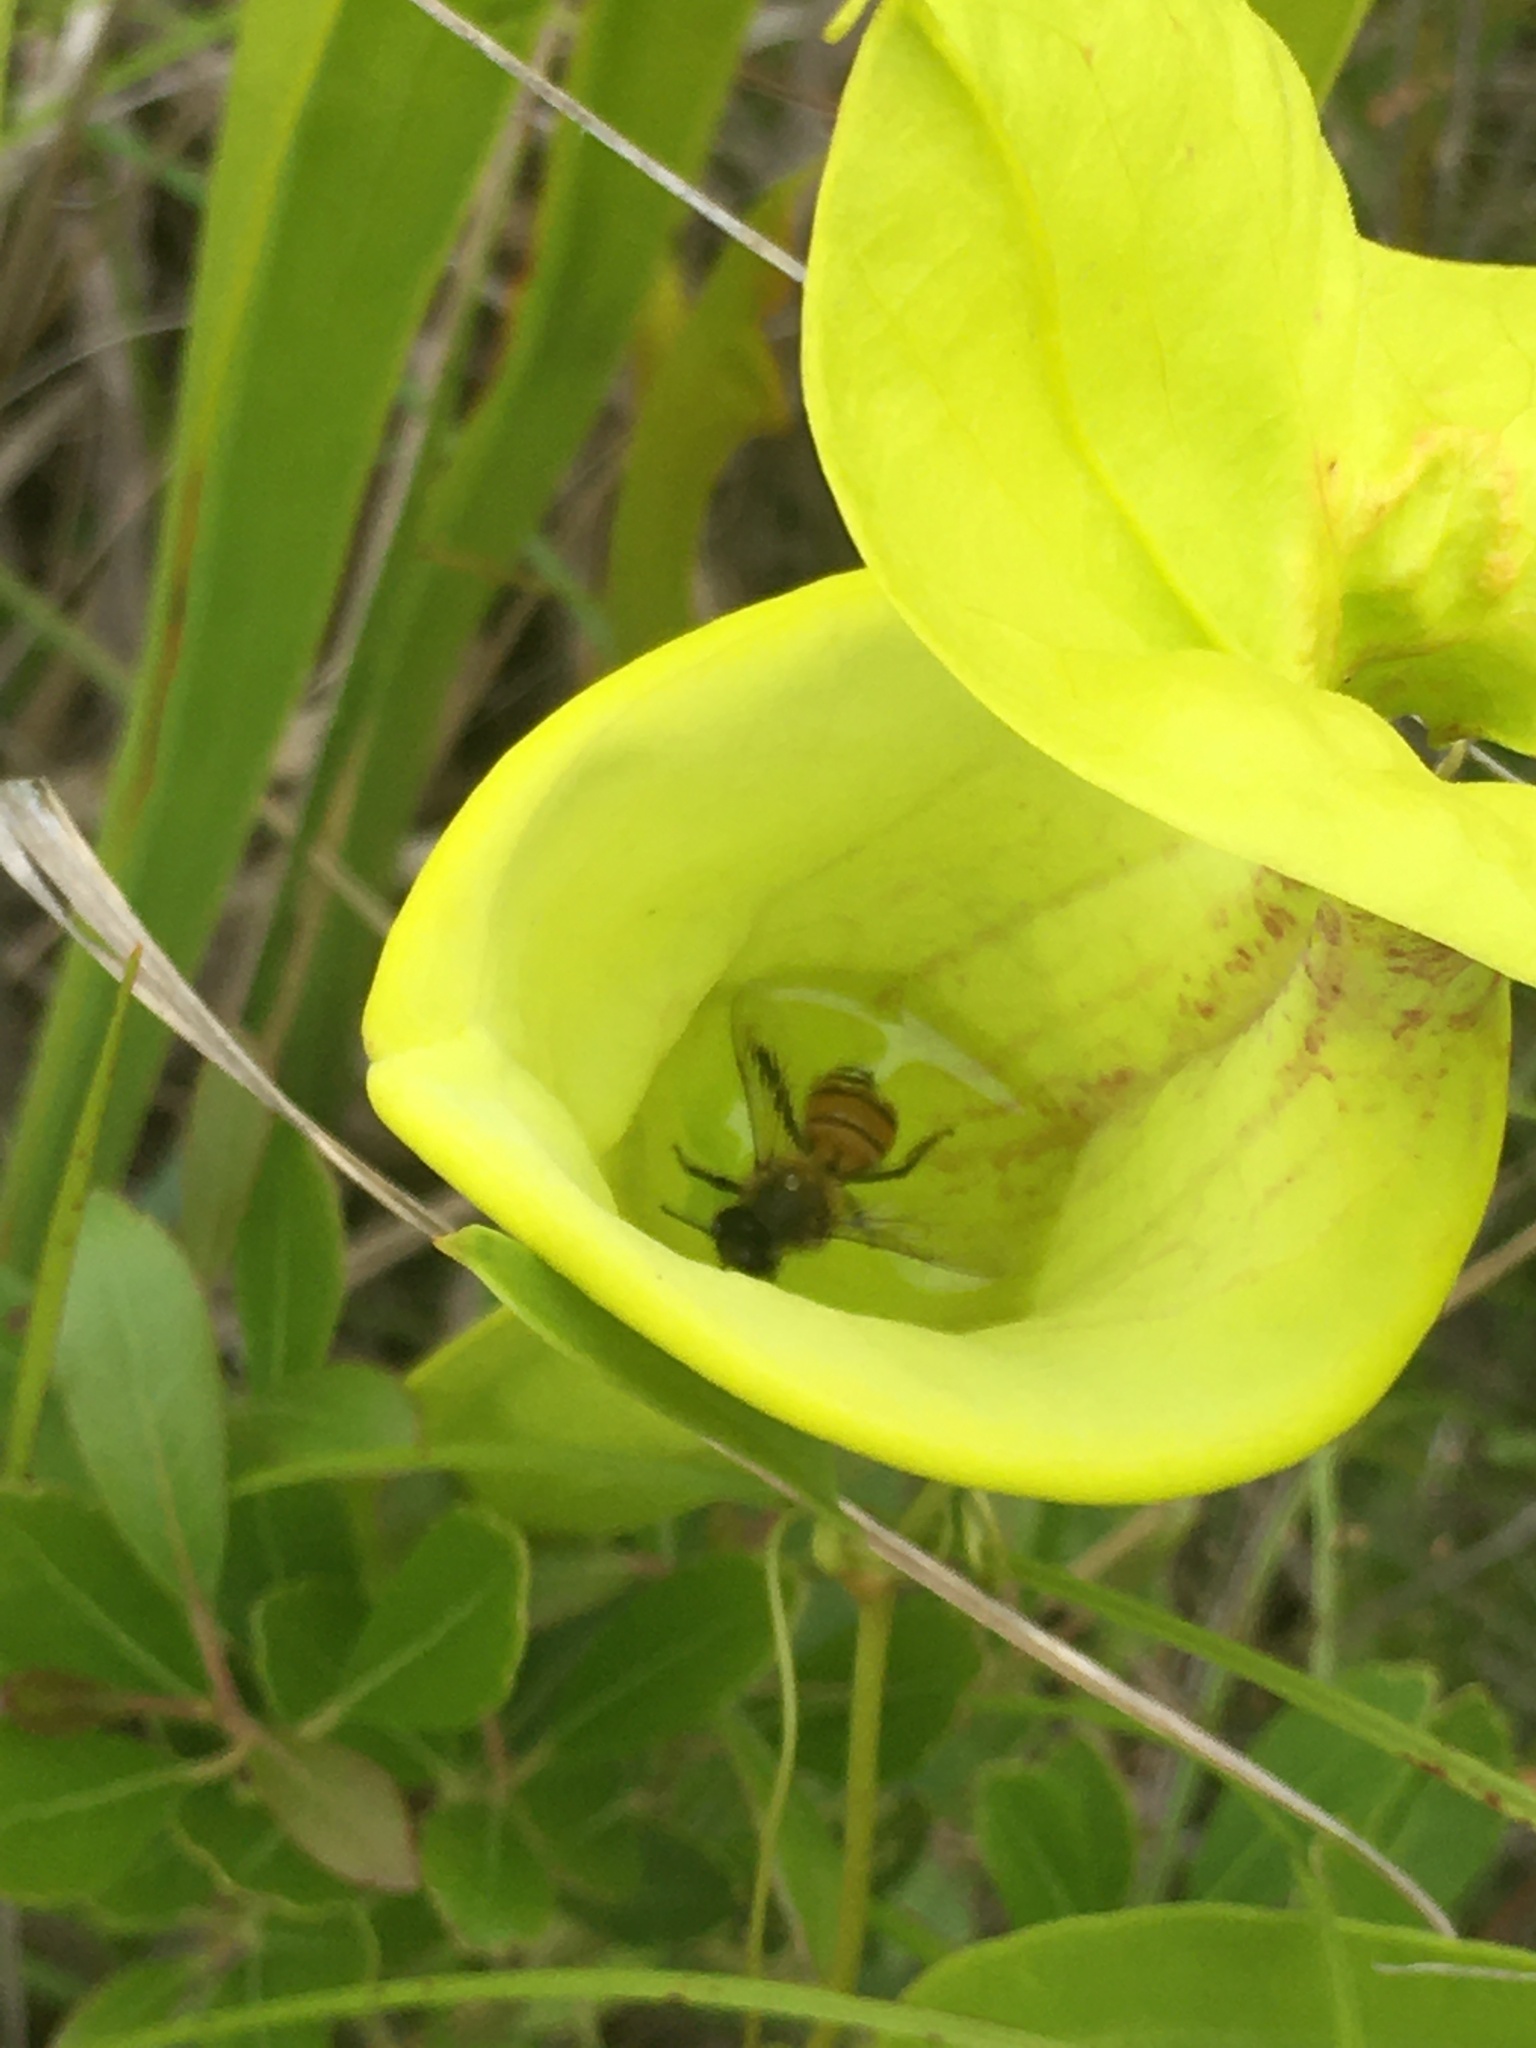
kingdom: Animalia
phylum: Arthropoda
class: Insecta
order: Hymenoptera
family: Apidae
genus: Apis
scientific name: Apis mellifera
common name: Honey bee
